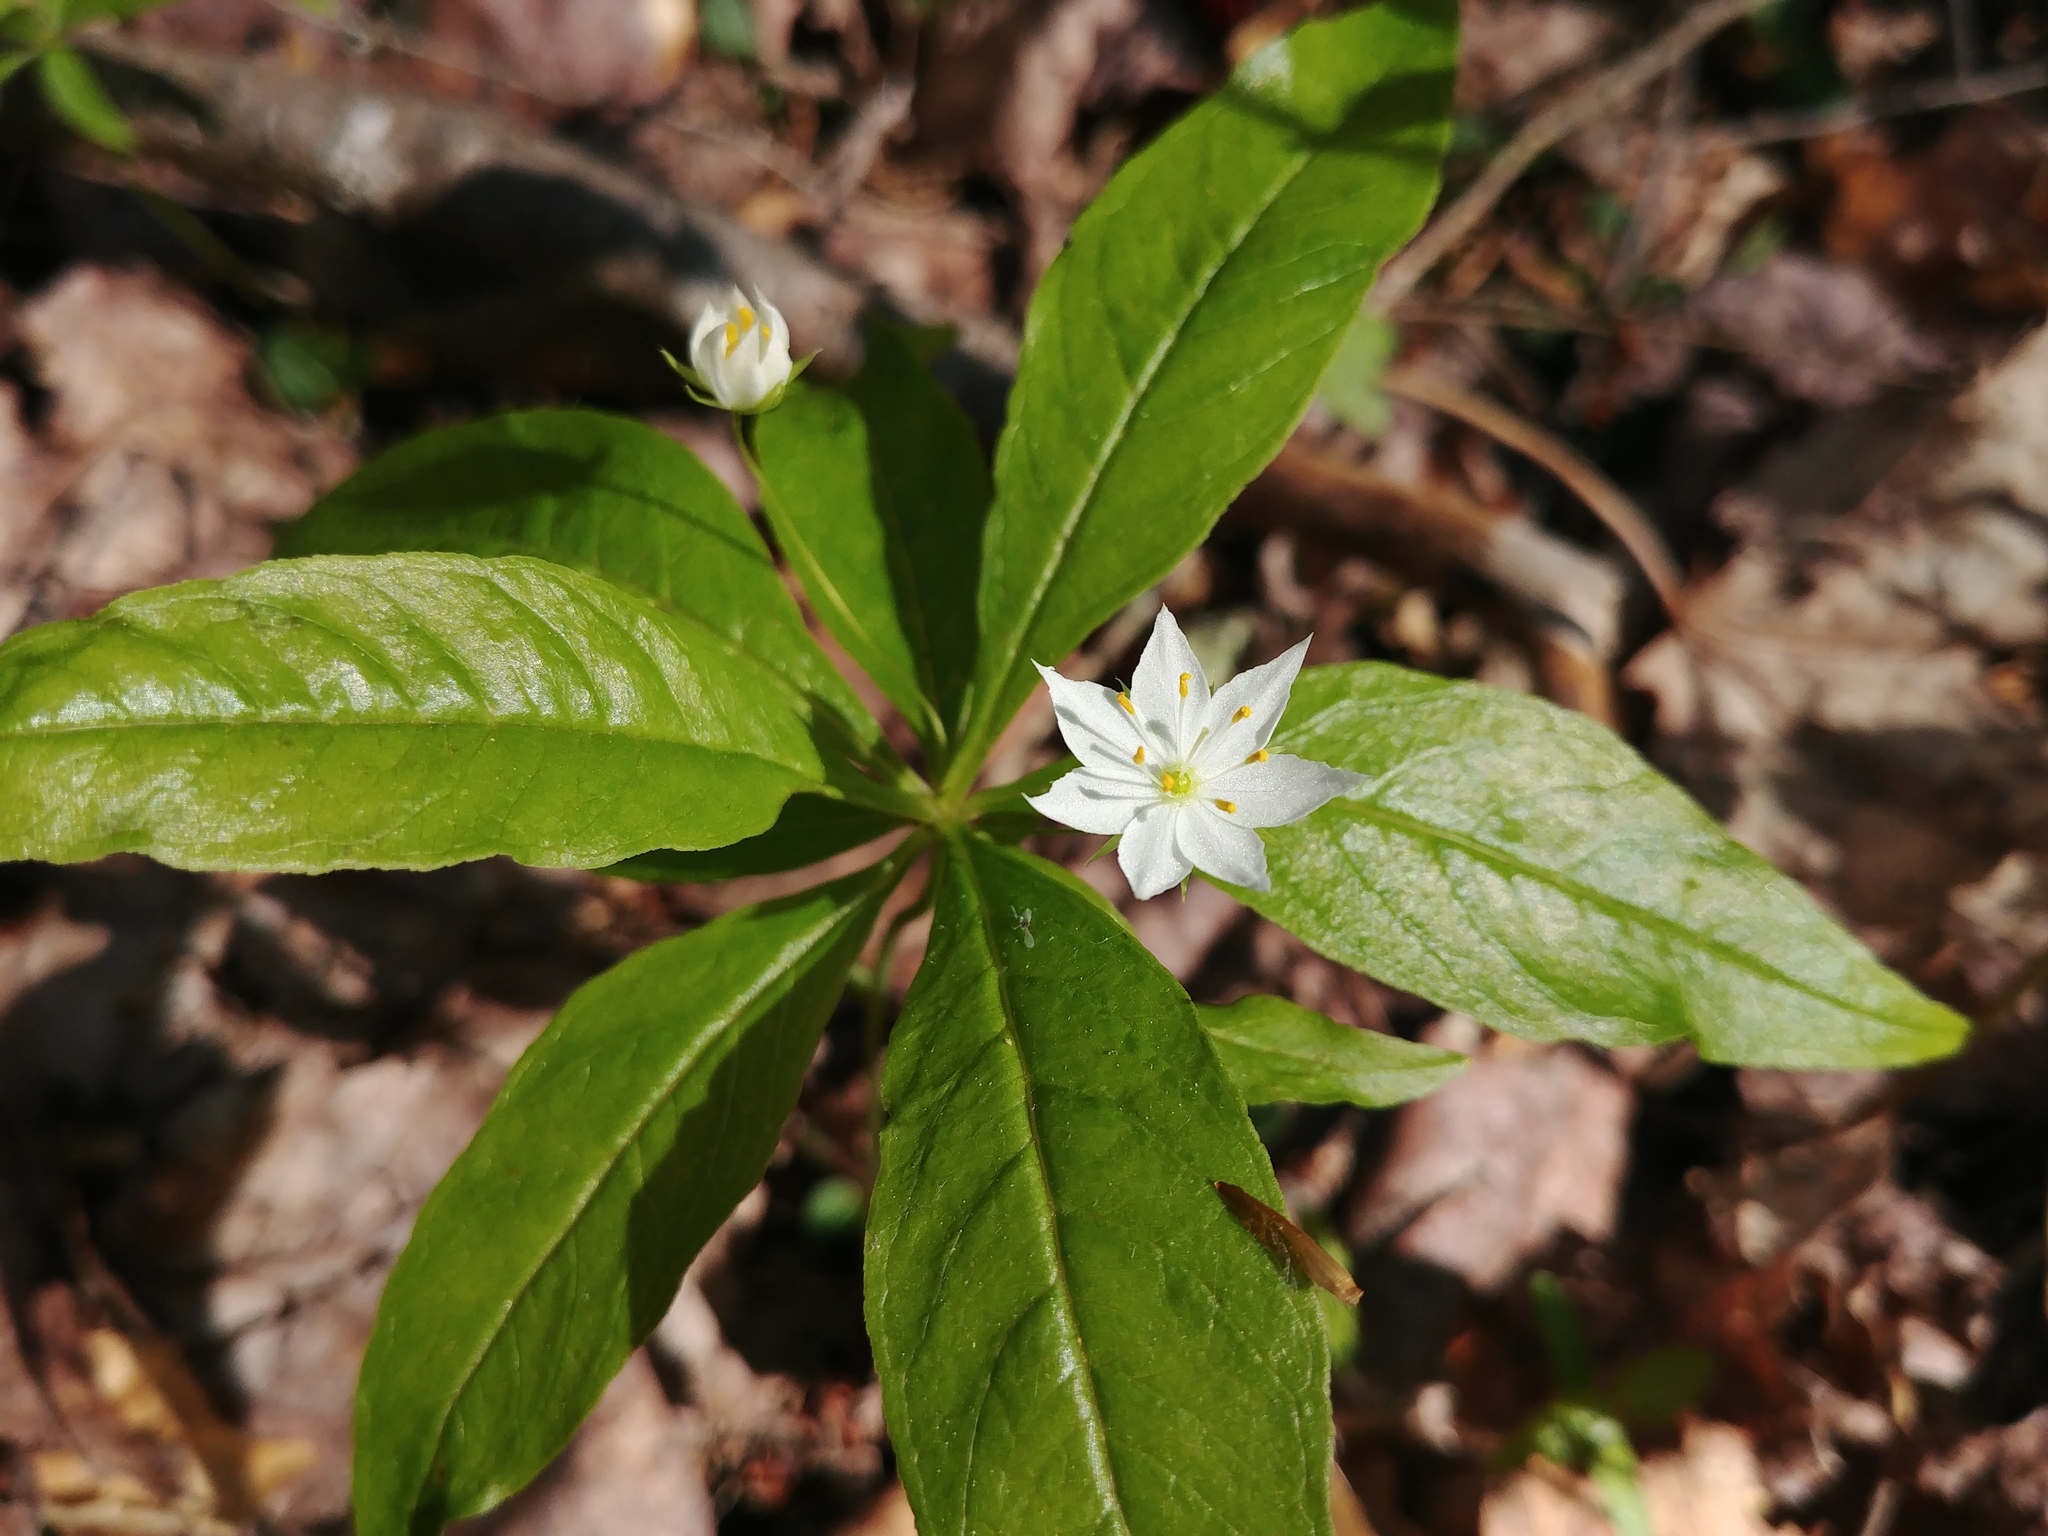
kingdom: Plantae
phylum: Tracheophyta
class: Magnoliopsida
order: Ericales
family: Primulaceae
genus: Lysimachia
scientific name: Lysimachia borealis
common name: American starflower
